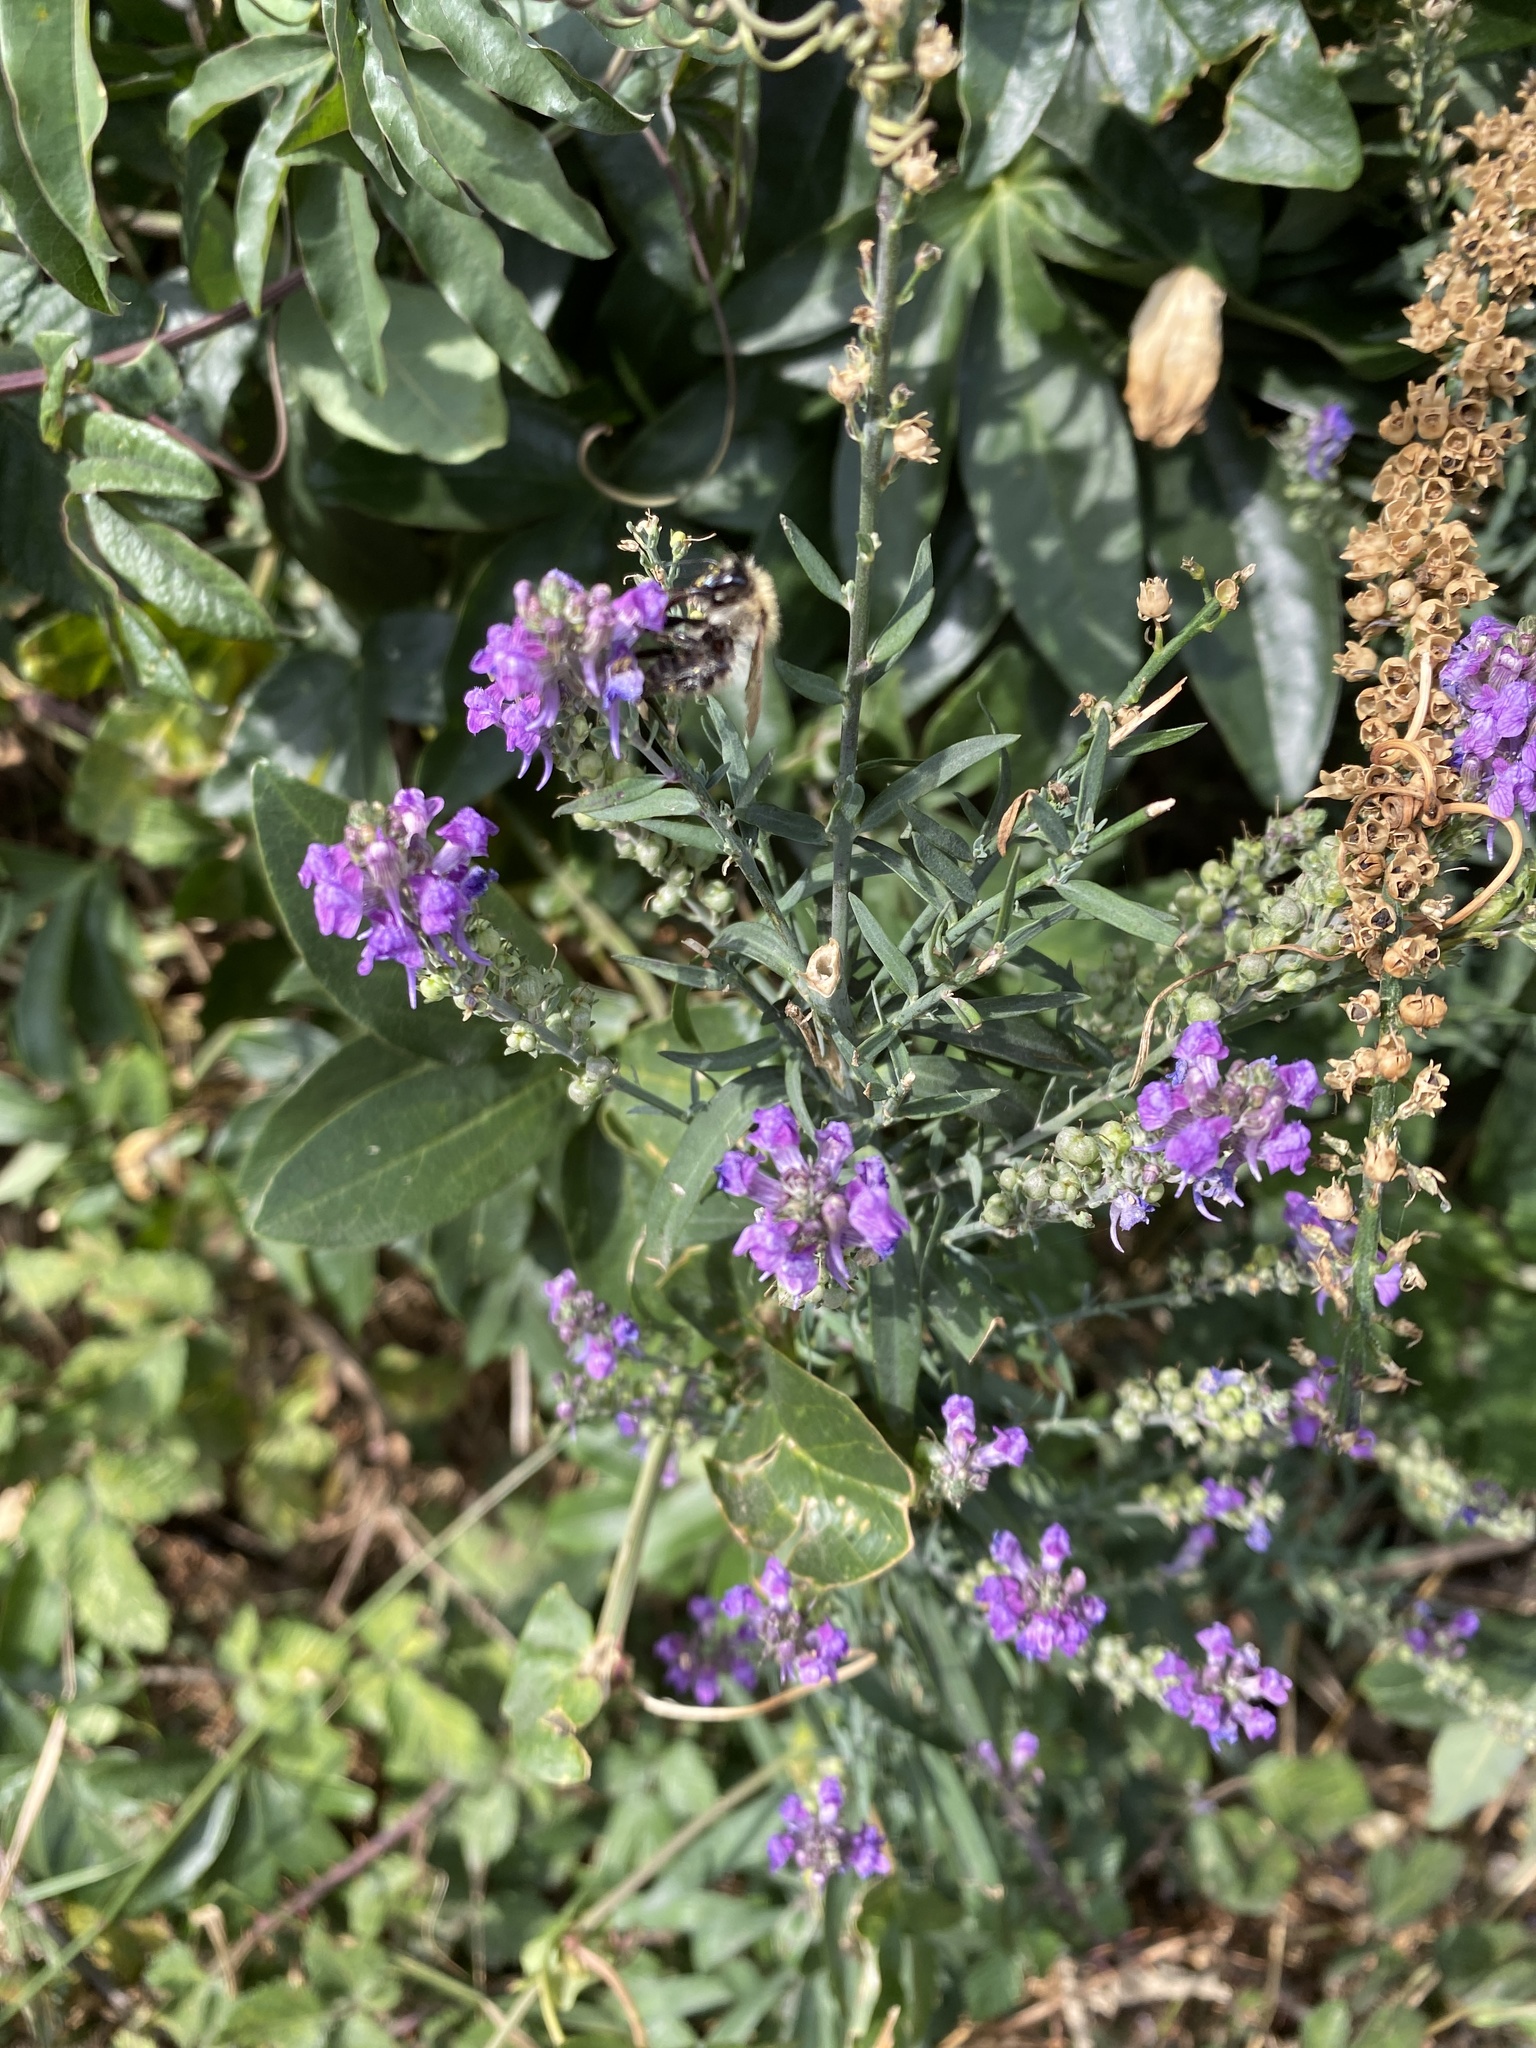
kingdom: Plantae
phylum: Tracheophyta
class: Magnoliopsida
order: Lamiales
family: Plantaginaceae
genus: Linaria
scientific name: Linaria purpurea
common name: Purple toadflax
